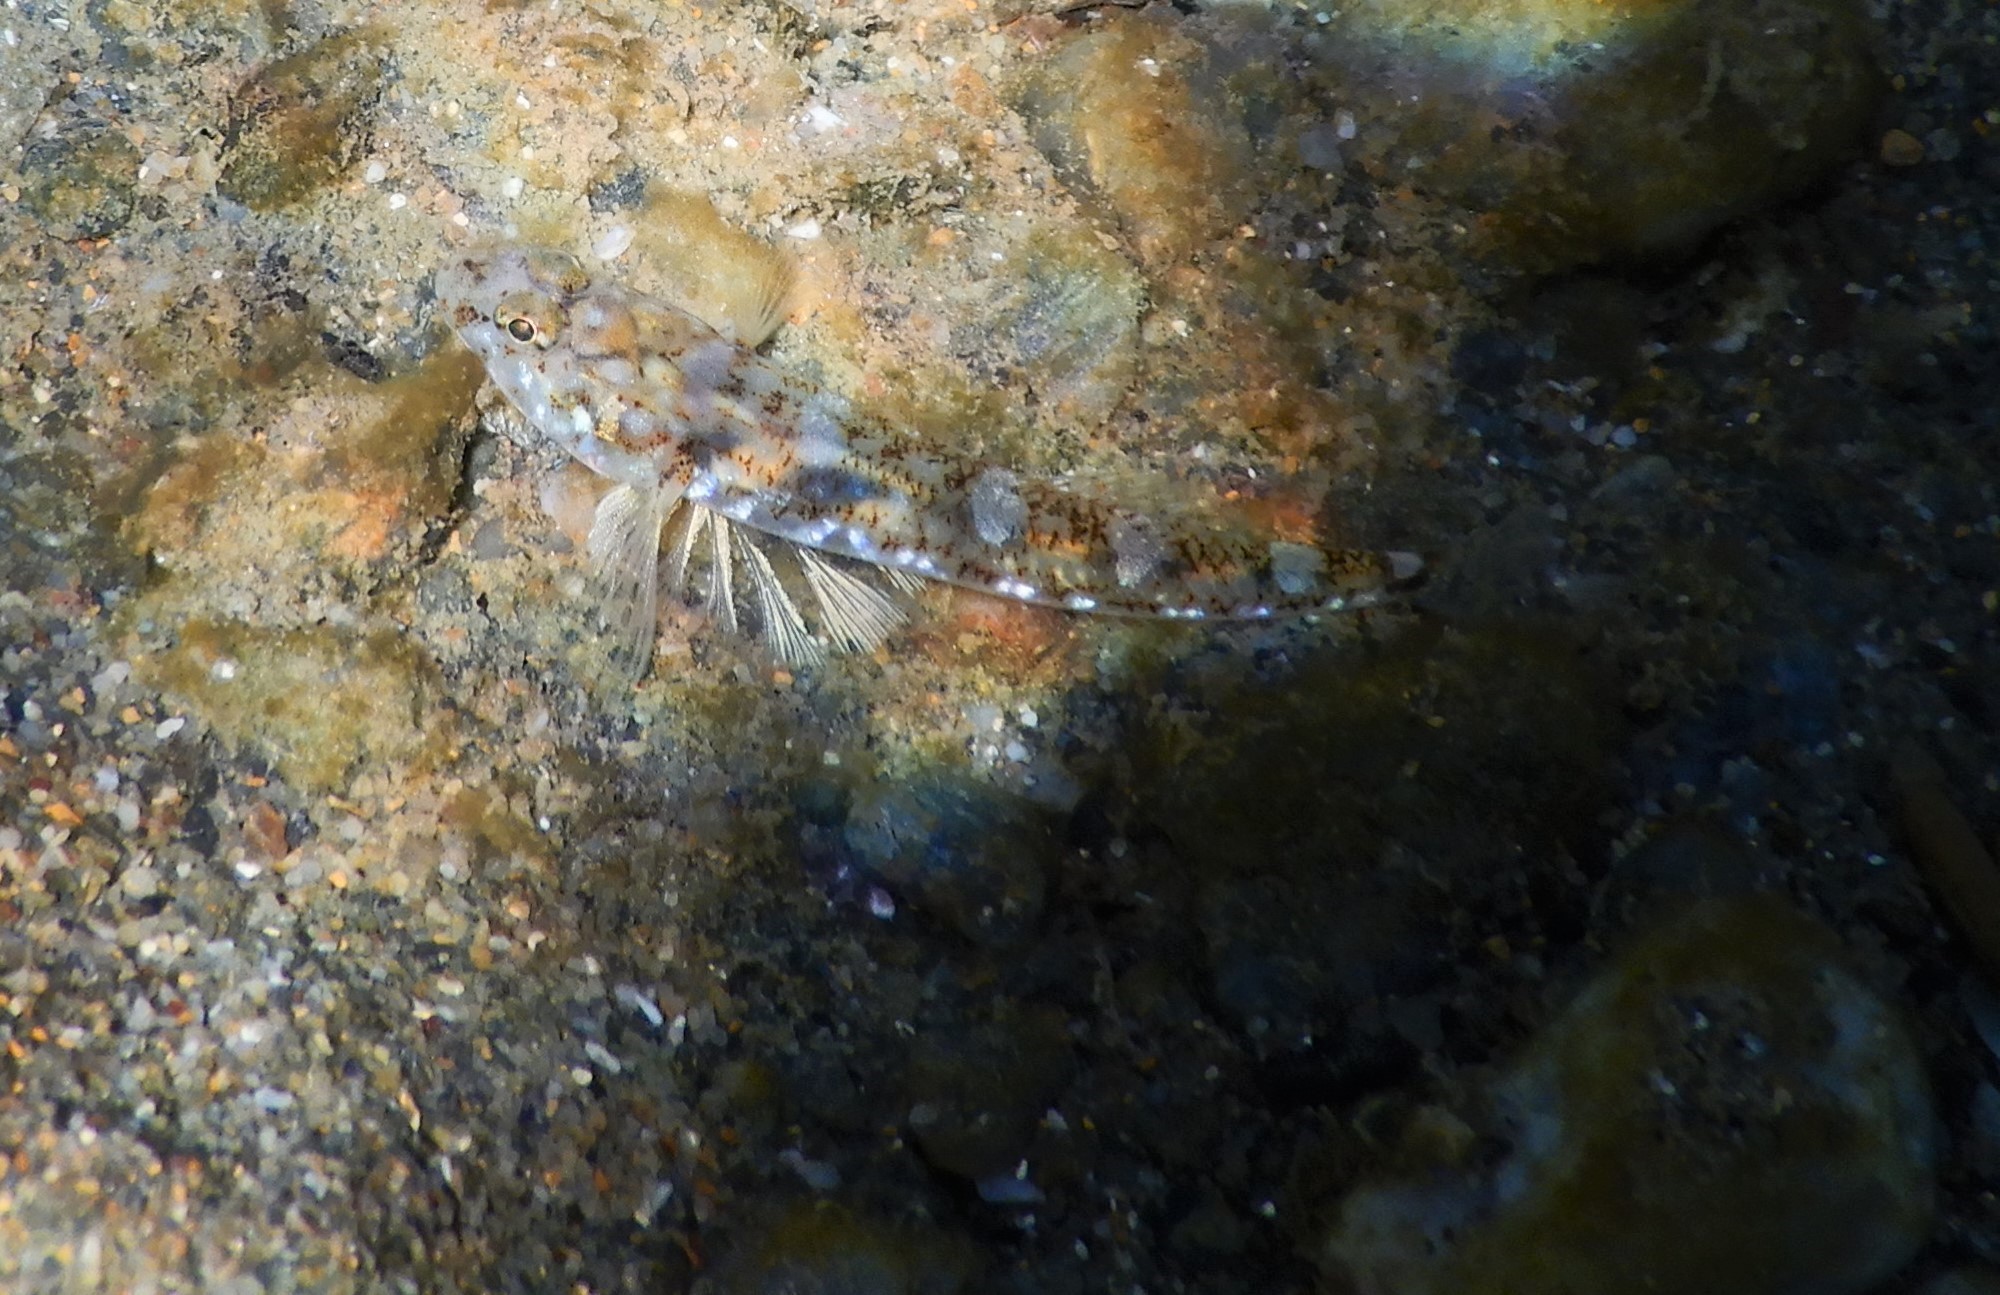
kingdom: Animalia
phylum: Chordata
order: Perciformes
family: Gobiidae
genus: Pomatoschistus
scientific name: Pomatoschistus marmoratus
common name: Marbled goby
